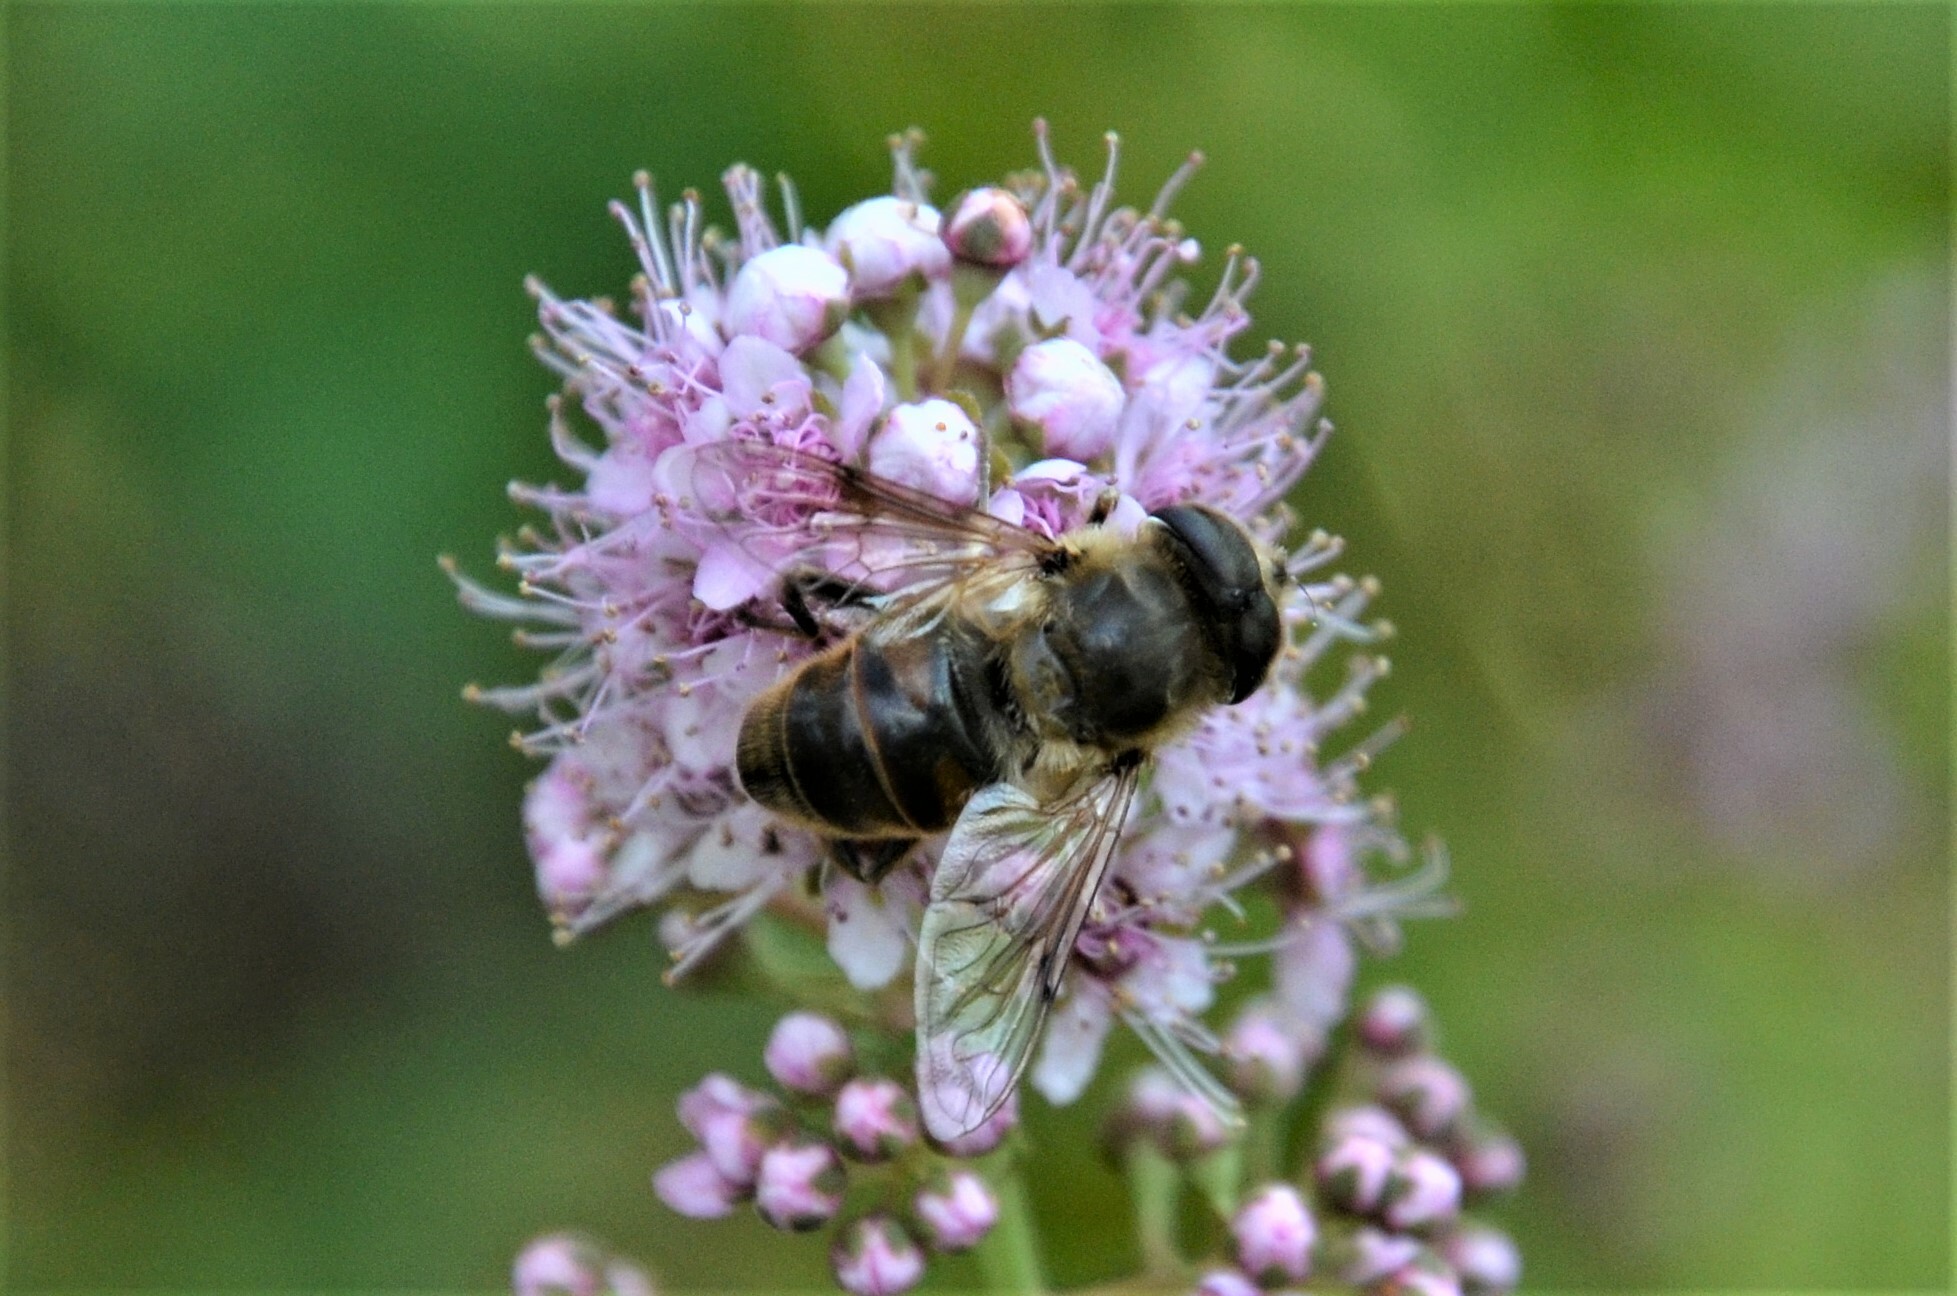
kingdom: Animalia
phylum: Arthropoda
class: Insecta
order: Diptera
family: Syrphidae
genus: Eristalis
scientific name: Eristalis tenax
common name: Drone fly
